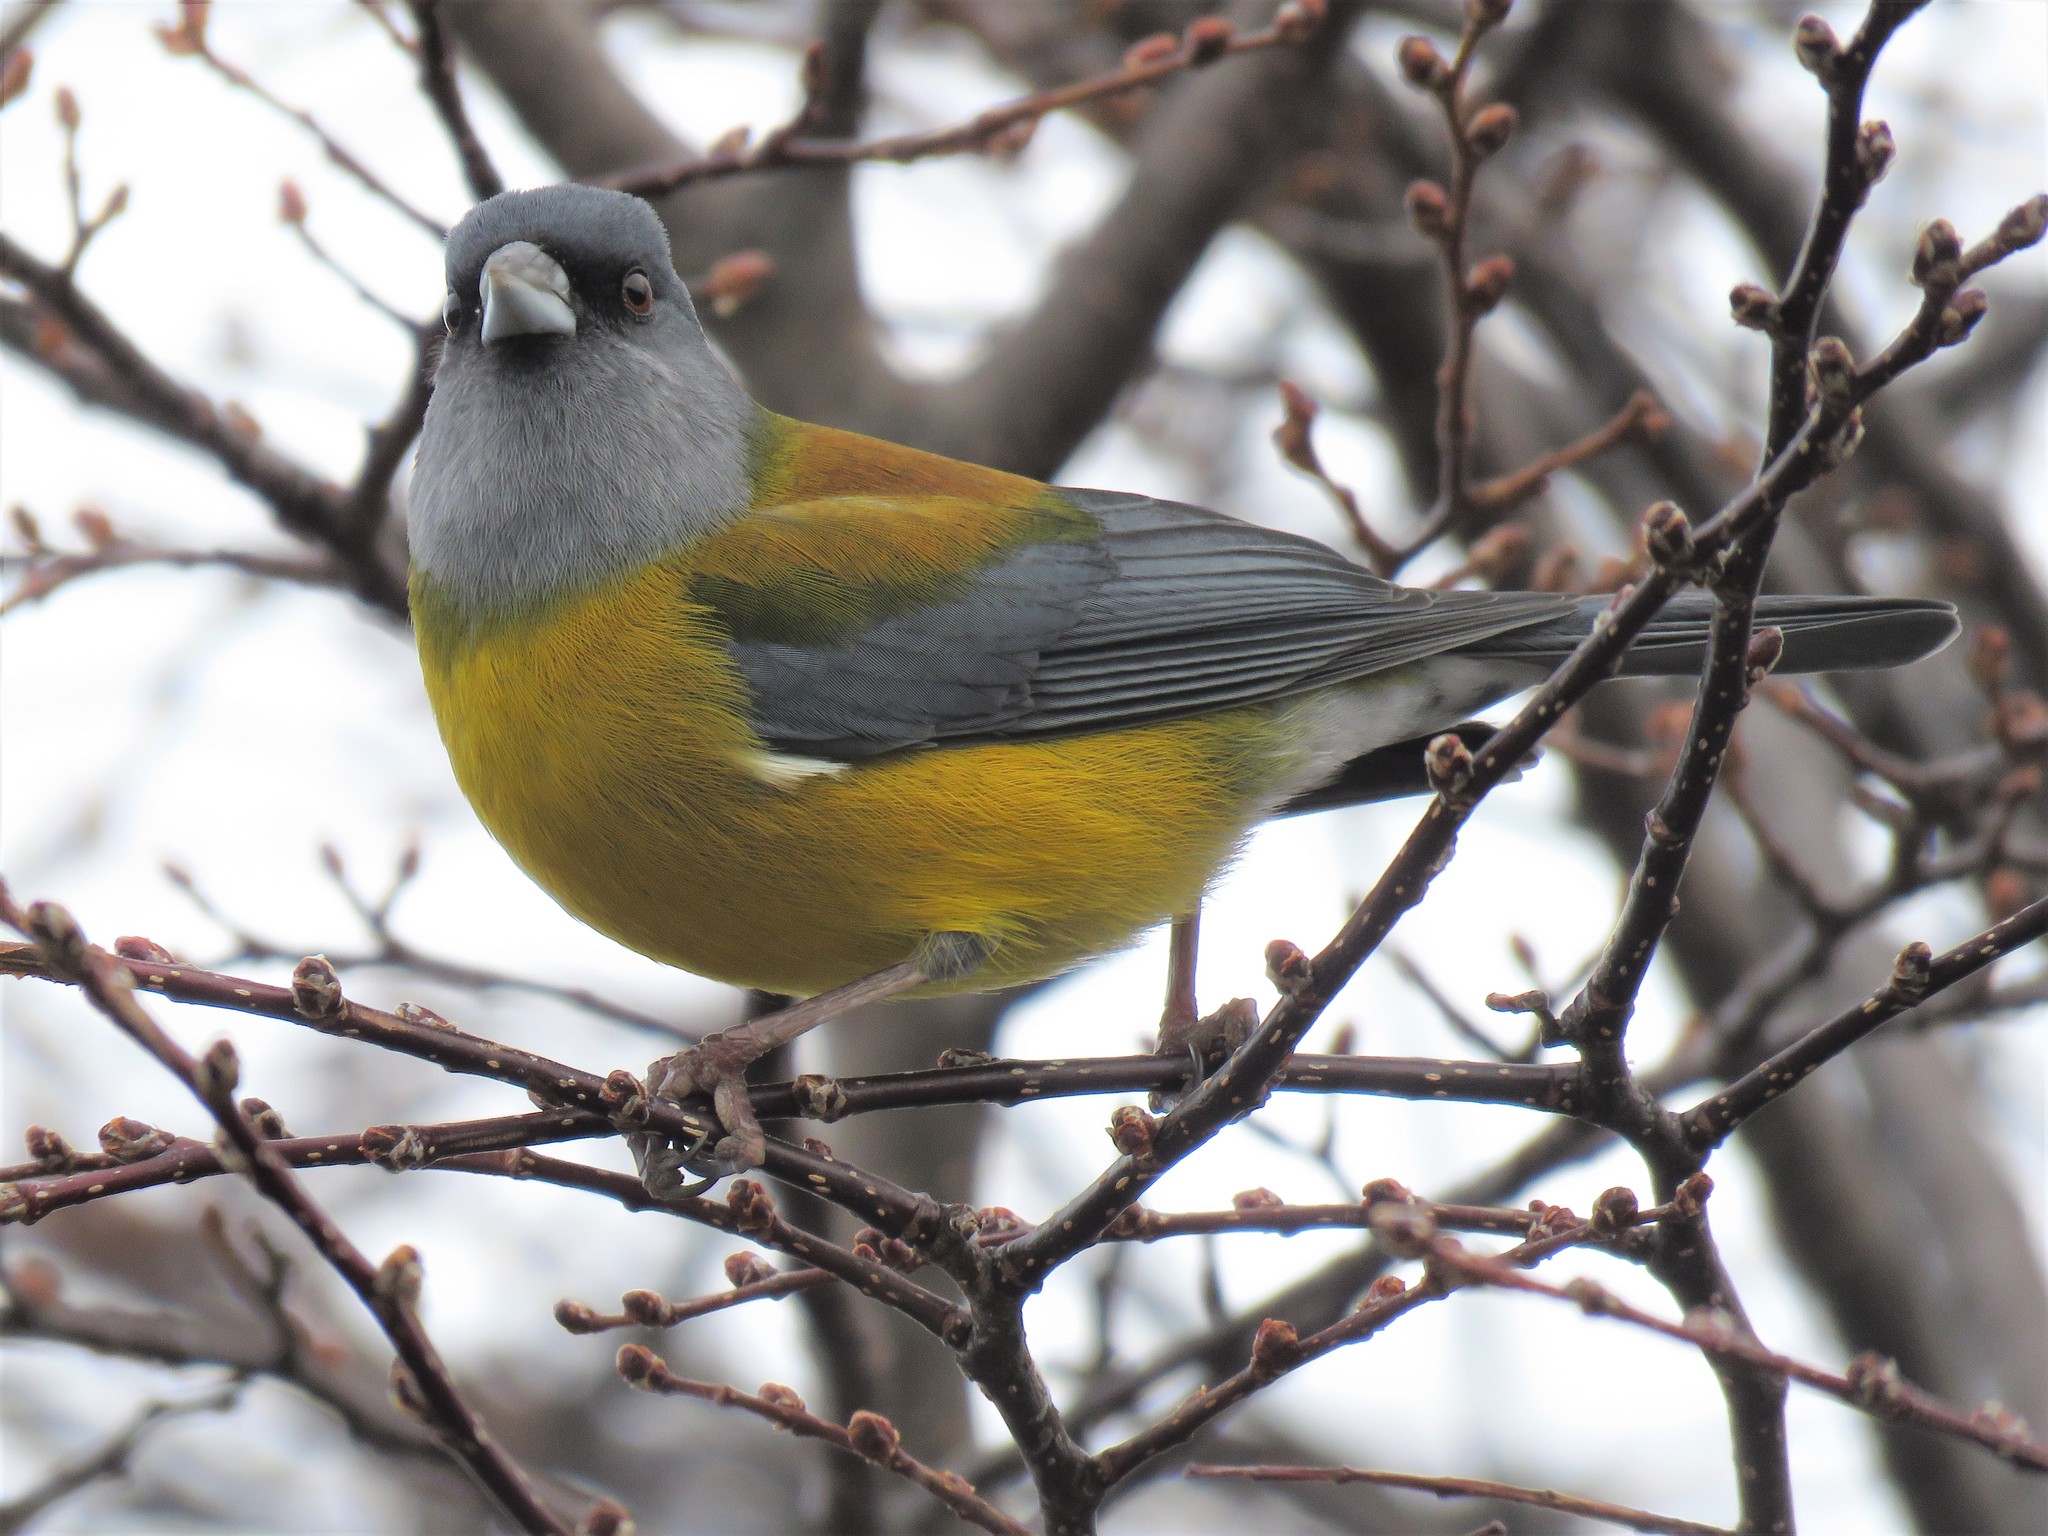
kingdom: Animalia
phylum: Chordata
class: Aves
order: Passeriformes
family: Thraupidae
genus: Phrygilus
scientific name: Phrygilus patagonicus
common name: Patagonian sierra finch
